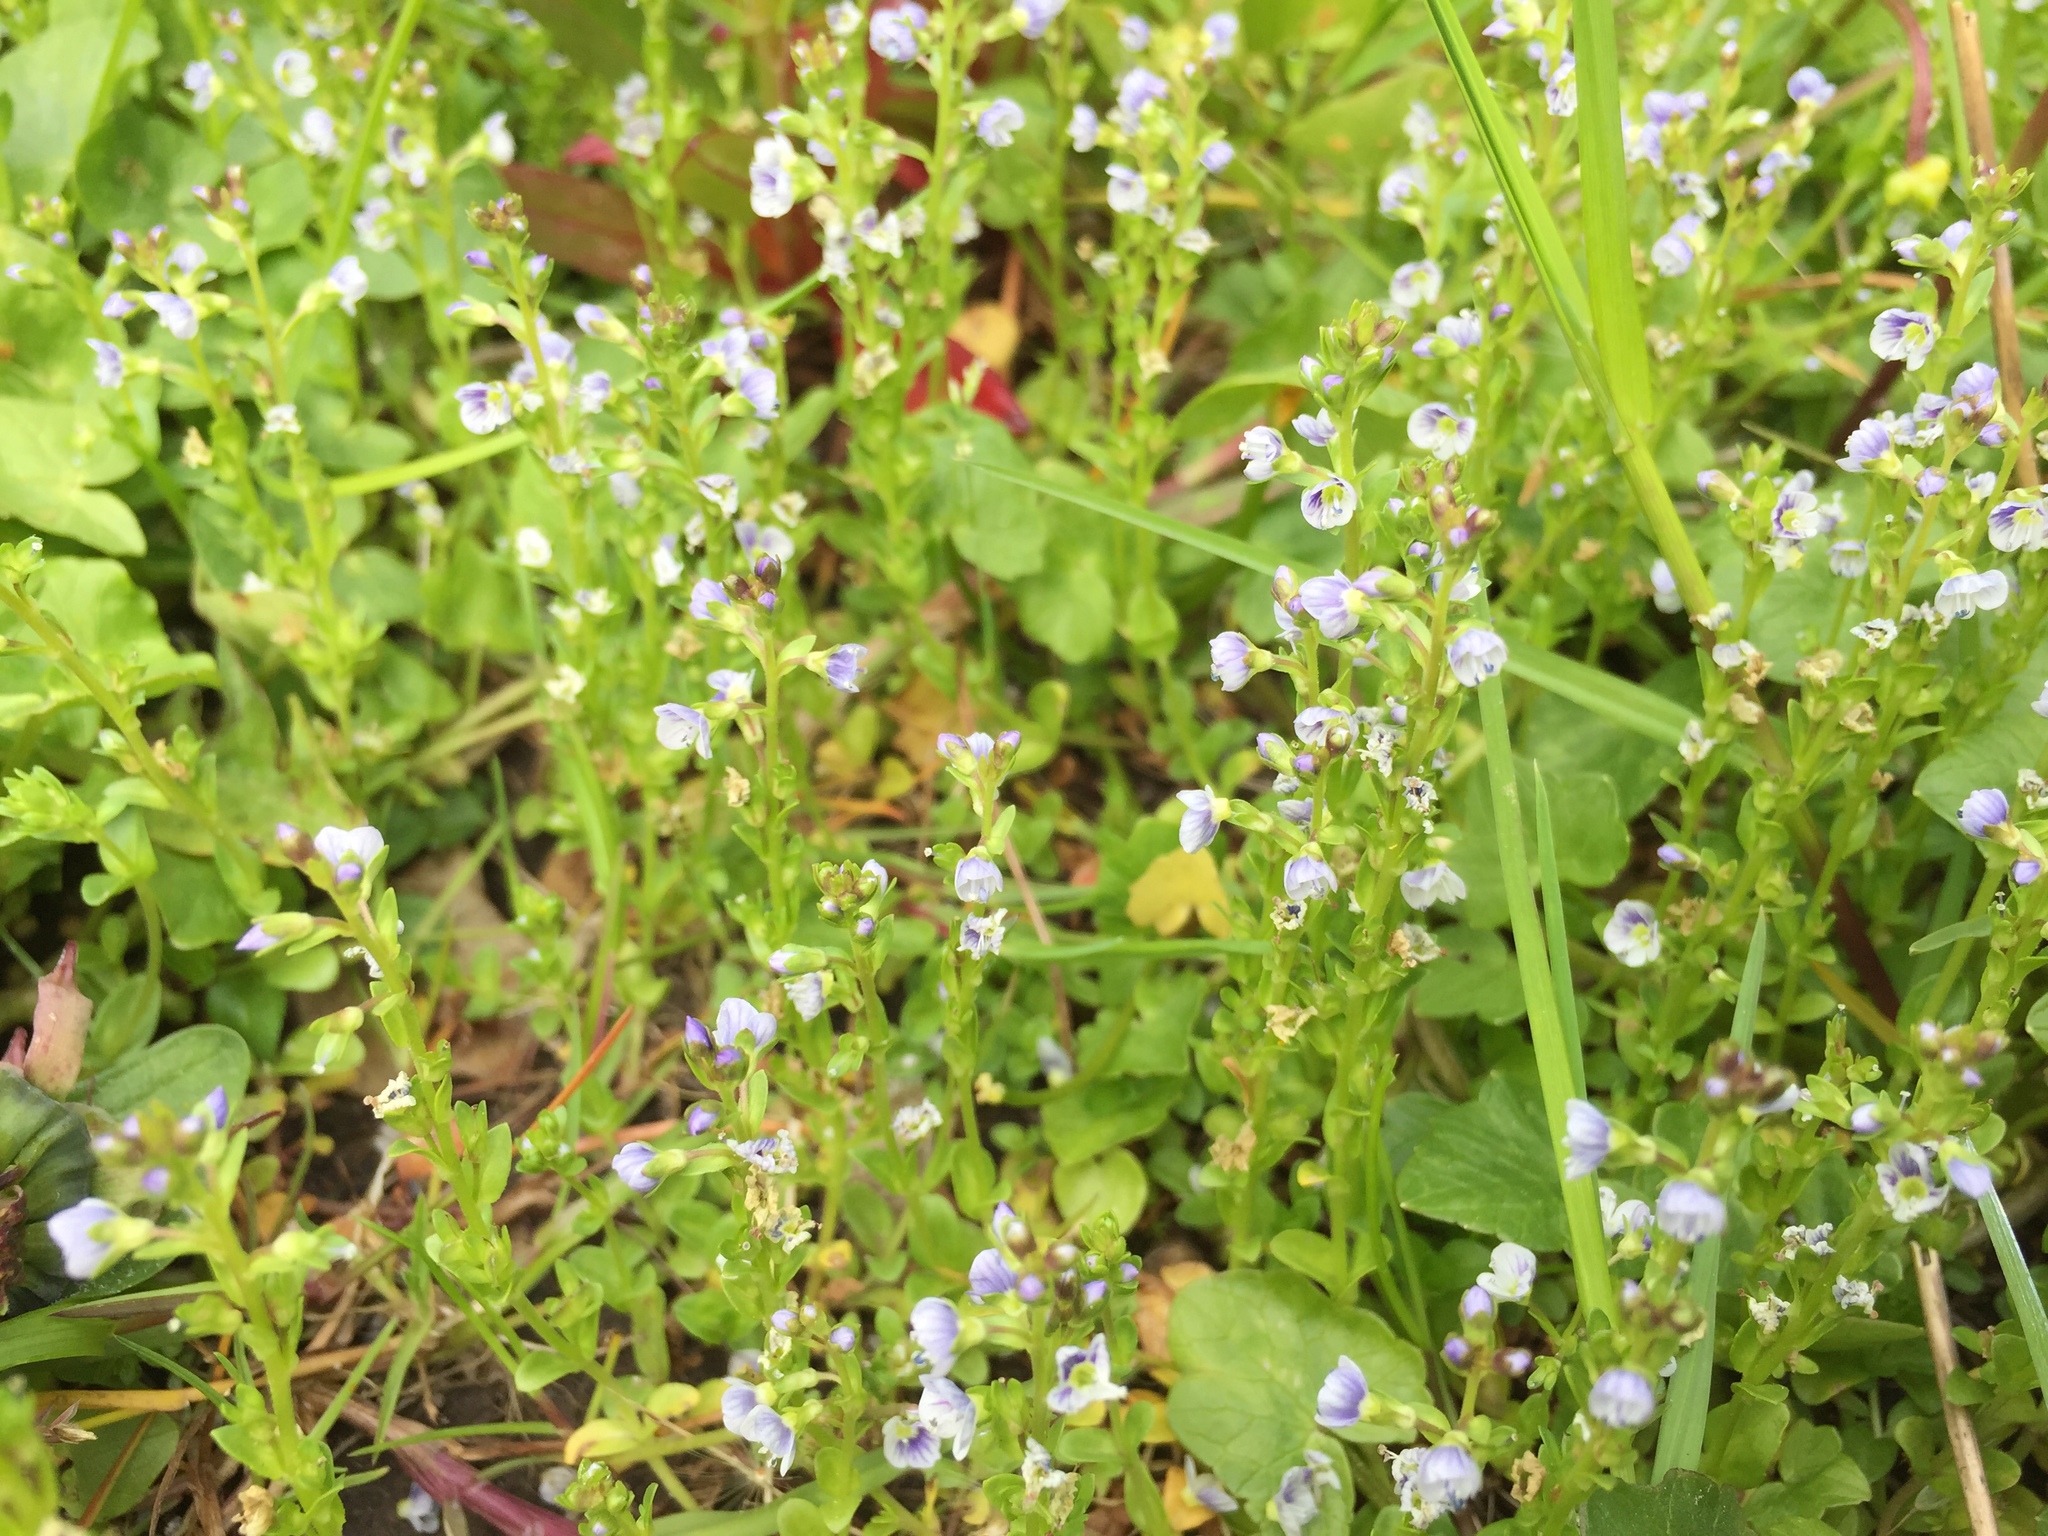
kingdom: Plantae
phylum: Tracheophyta
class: Magnoliopsida
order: Lamiales
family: Plantaginaceae
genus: Veronica
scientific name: Veronica serpyllifolia
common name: Thyme-leaved speedwell
